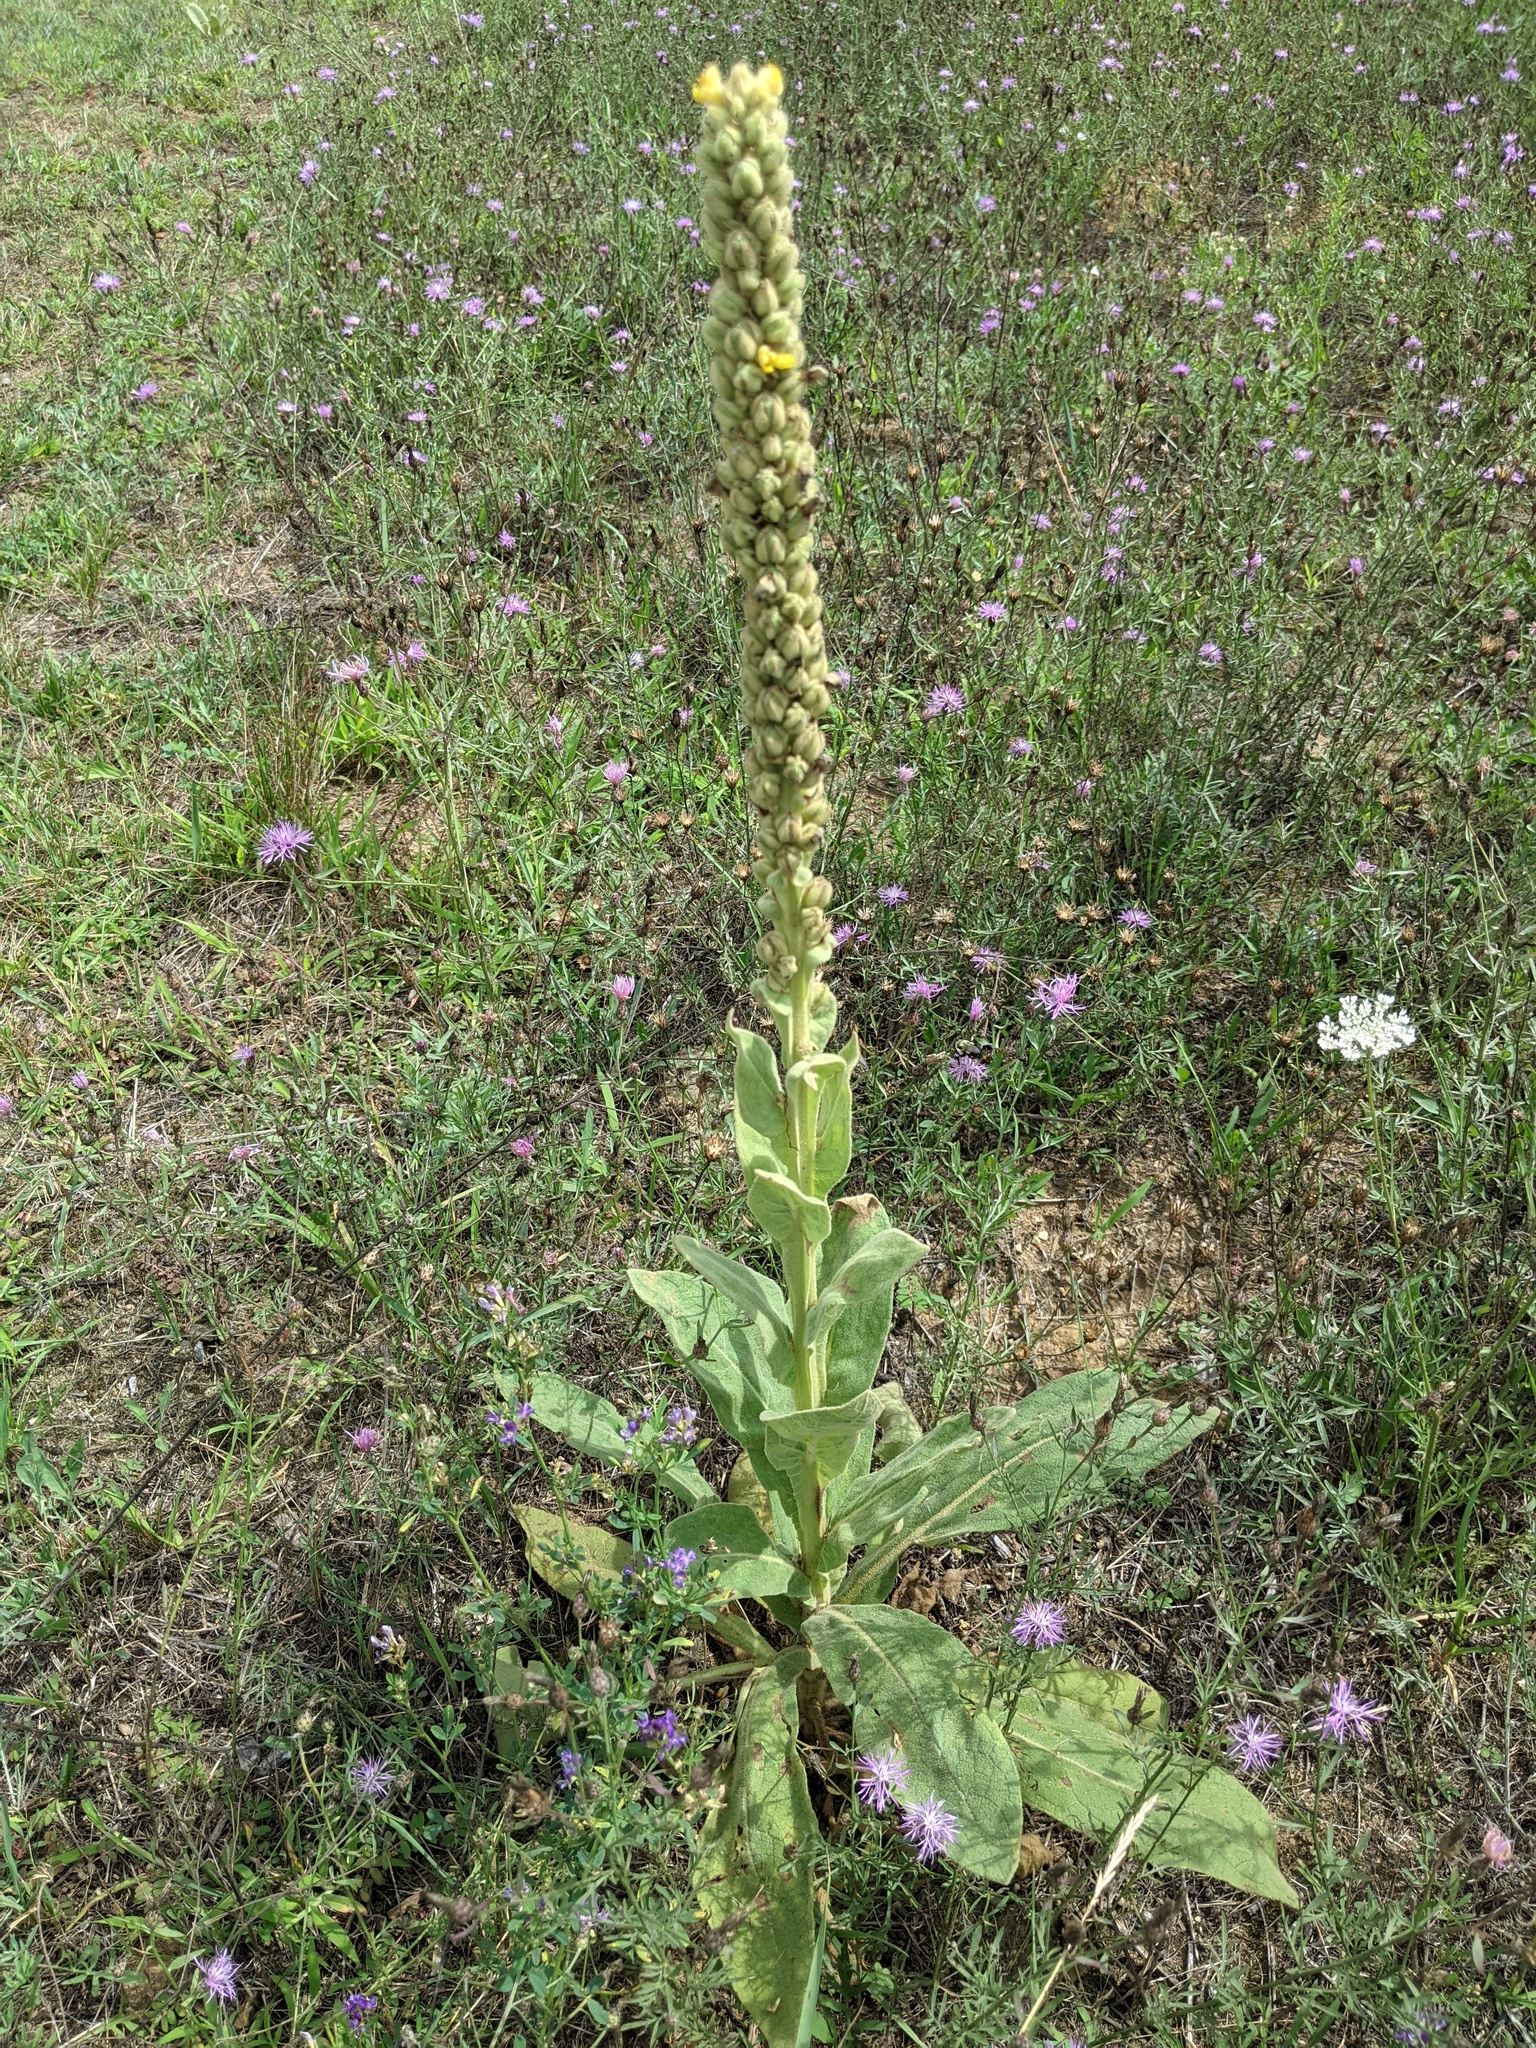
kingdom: Plantae
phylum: Tracheophyta
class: Magnoliopsida
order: Lamiales
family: Scrophulariaceae
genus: Verbascum
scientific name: Verbascum thapsus
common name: Common mullein
